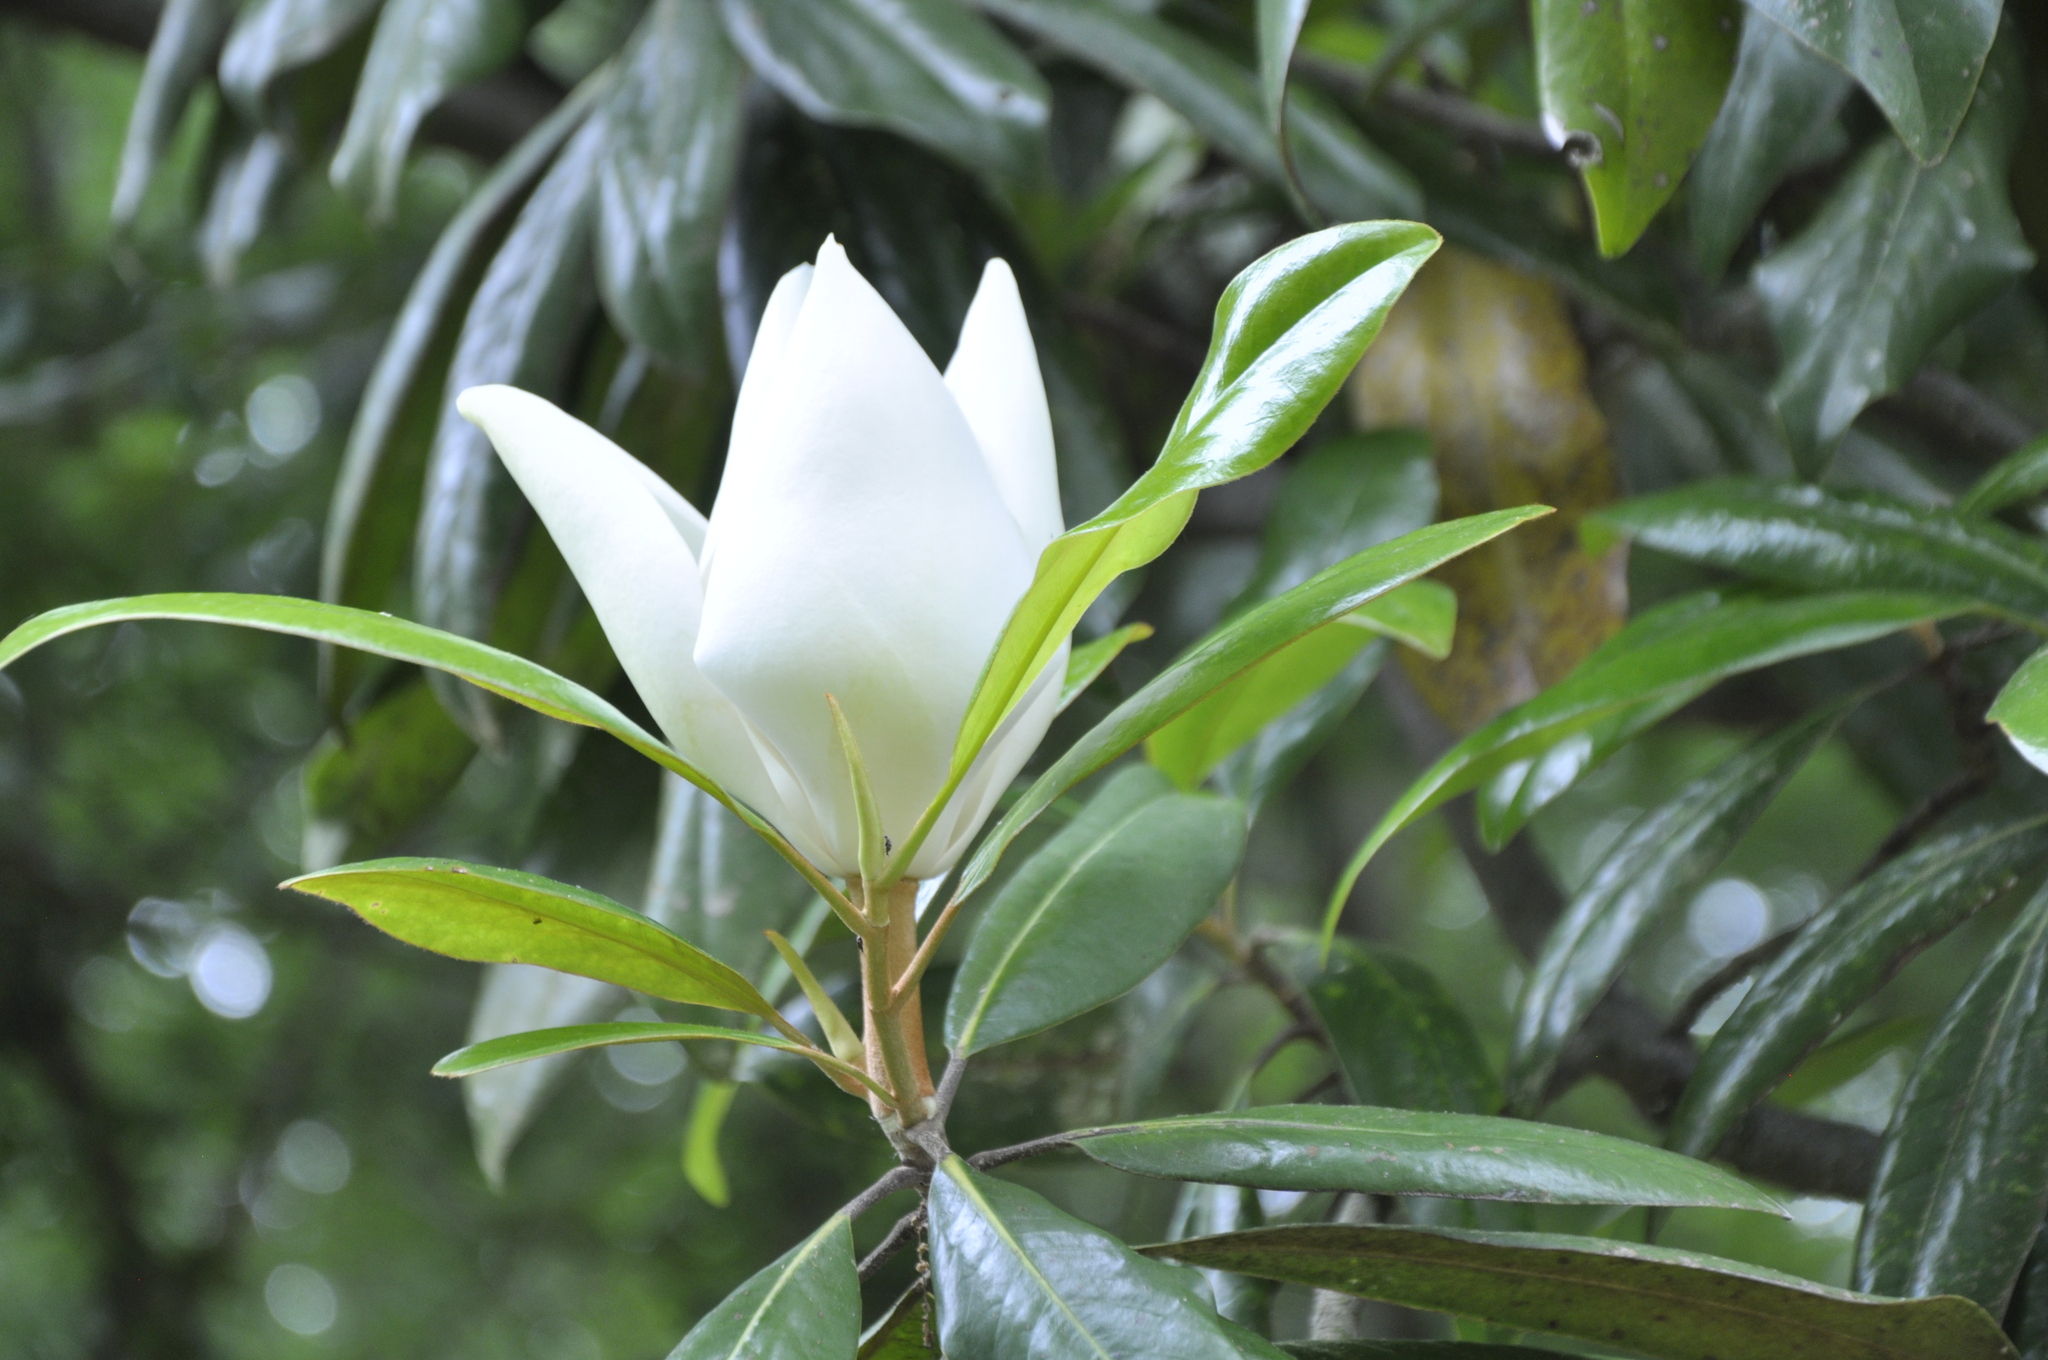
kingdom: Plantae
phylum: Tracheophyta
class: Magnoliopsida
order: Magnoliales
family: Magnoliaceae
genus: Magnolia
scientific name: Magnolia grandiflora
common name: Southern magnolia
